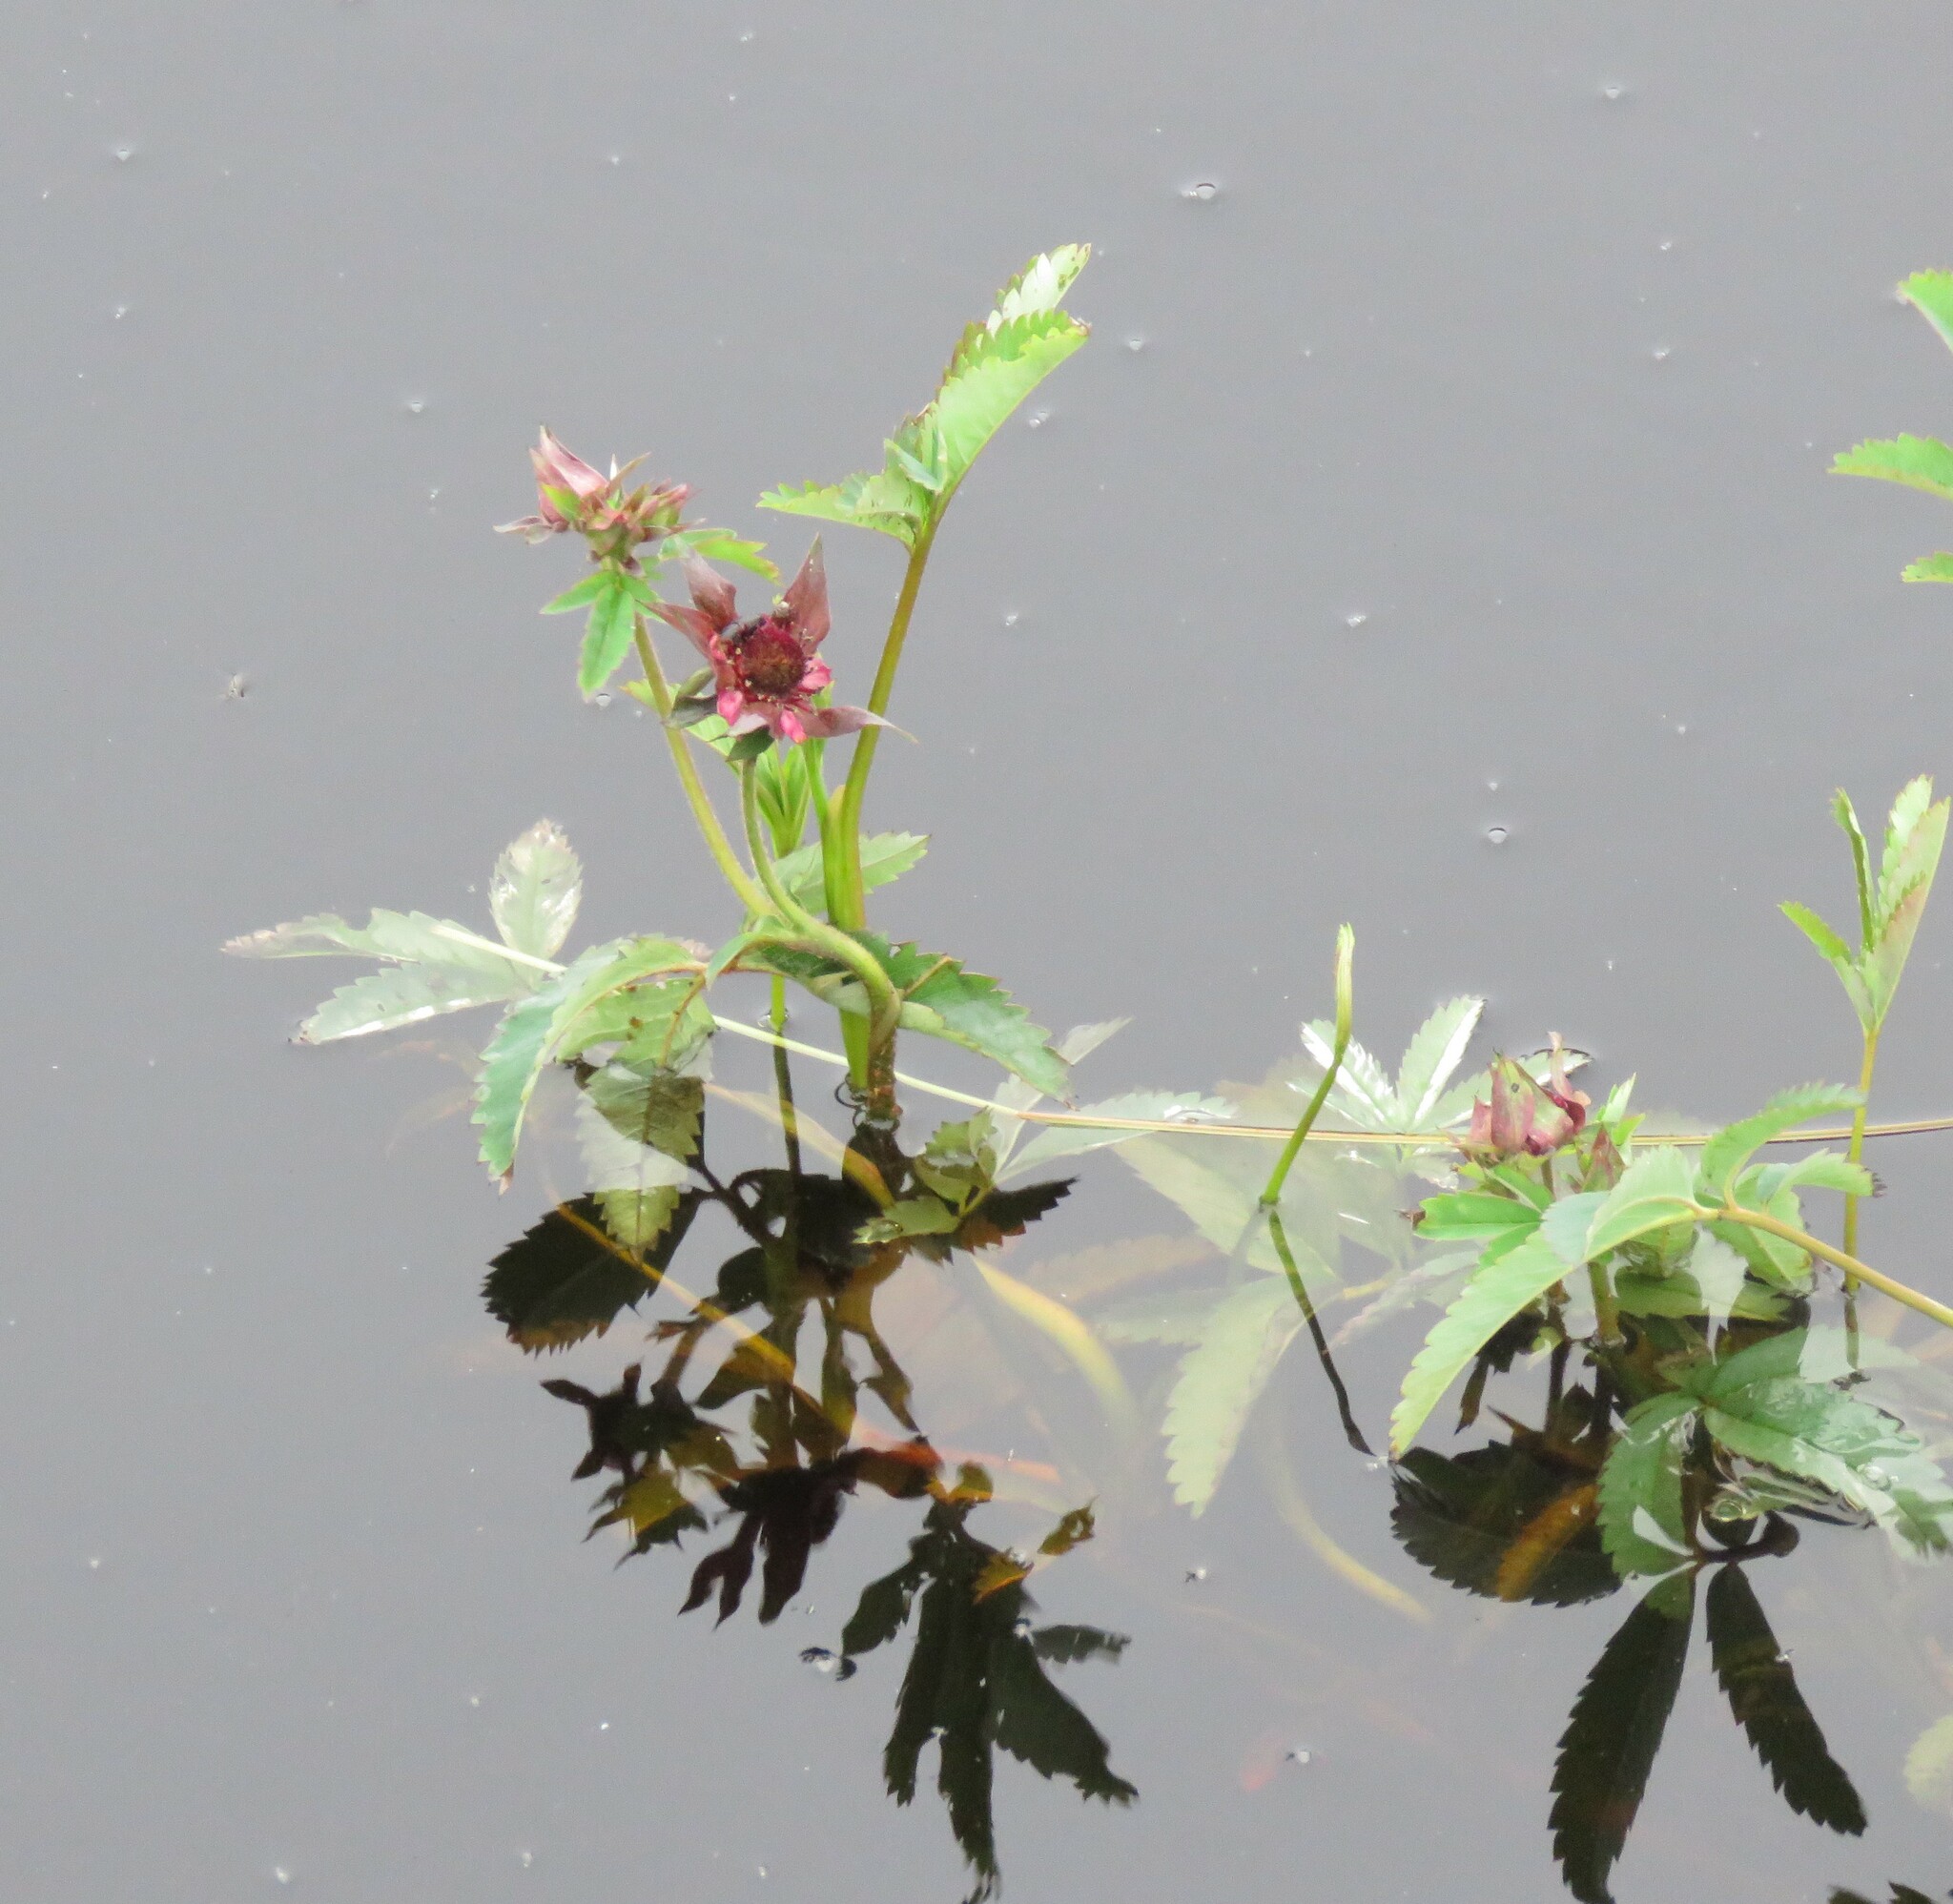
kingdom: Plantae
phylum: Tracheophyta
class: Magnoliopsida
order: Rosales
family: Rosaceae
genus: Comarum
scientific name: Comarum palustre
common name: Marsh cinquefoil
